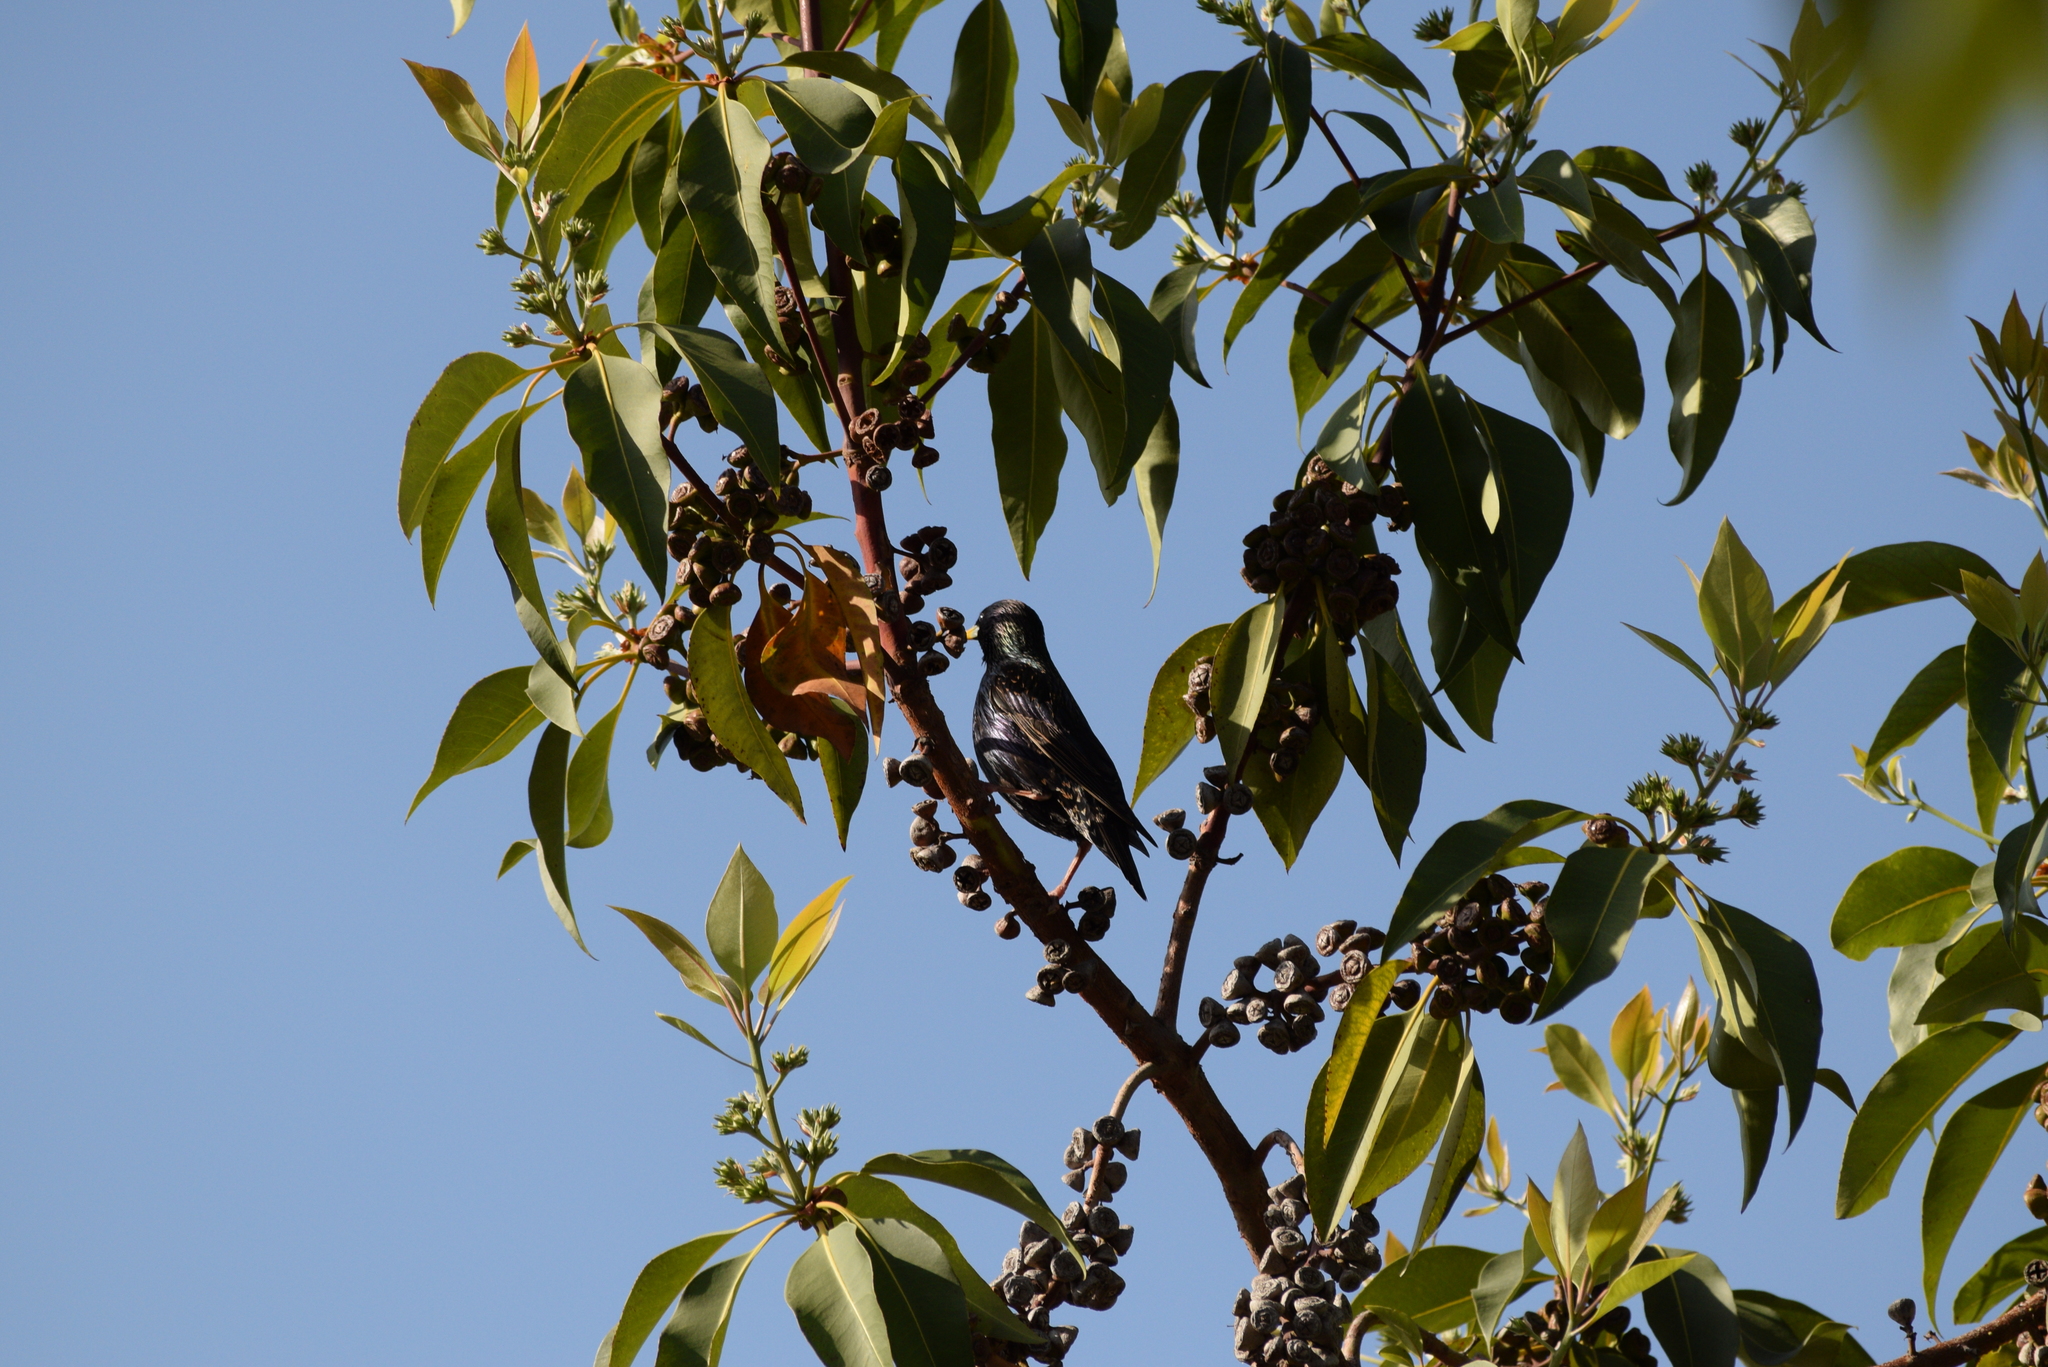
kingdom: Animalia
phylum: Chordata
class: Aves
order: Passeriformes
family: Sturnidae
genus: Sturnus
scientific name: Sturnus vulgaris
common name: Common starling
